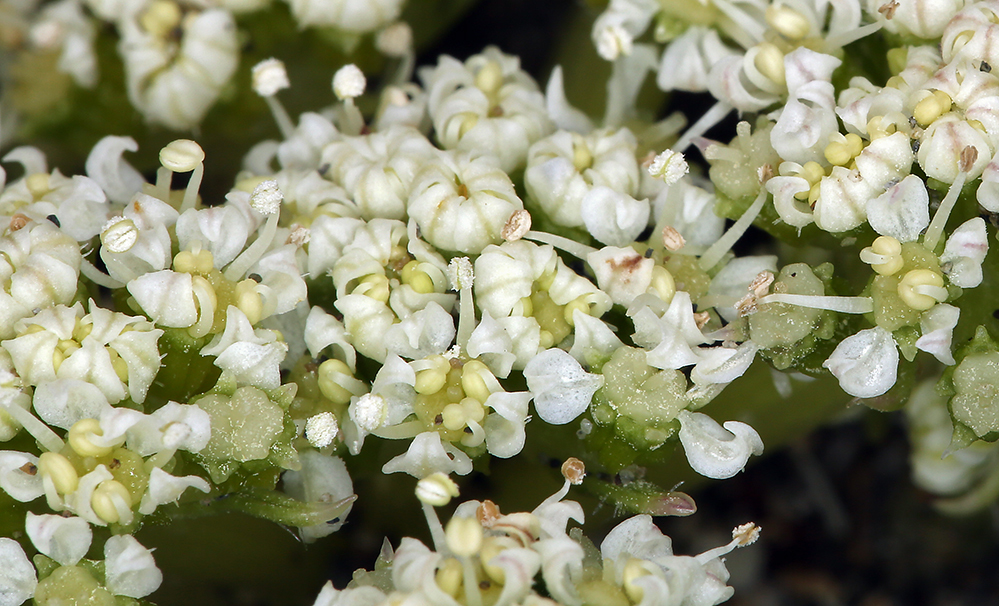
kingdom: Plantae
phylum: Tracheophyta
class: Magnoliopsida
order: Apiales
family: Apiaceae
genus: Angelica
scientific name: Angelica leiocarpa
